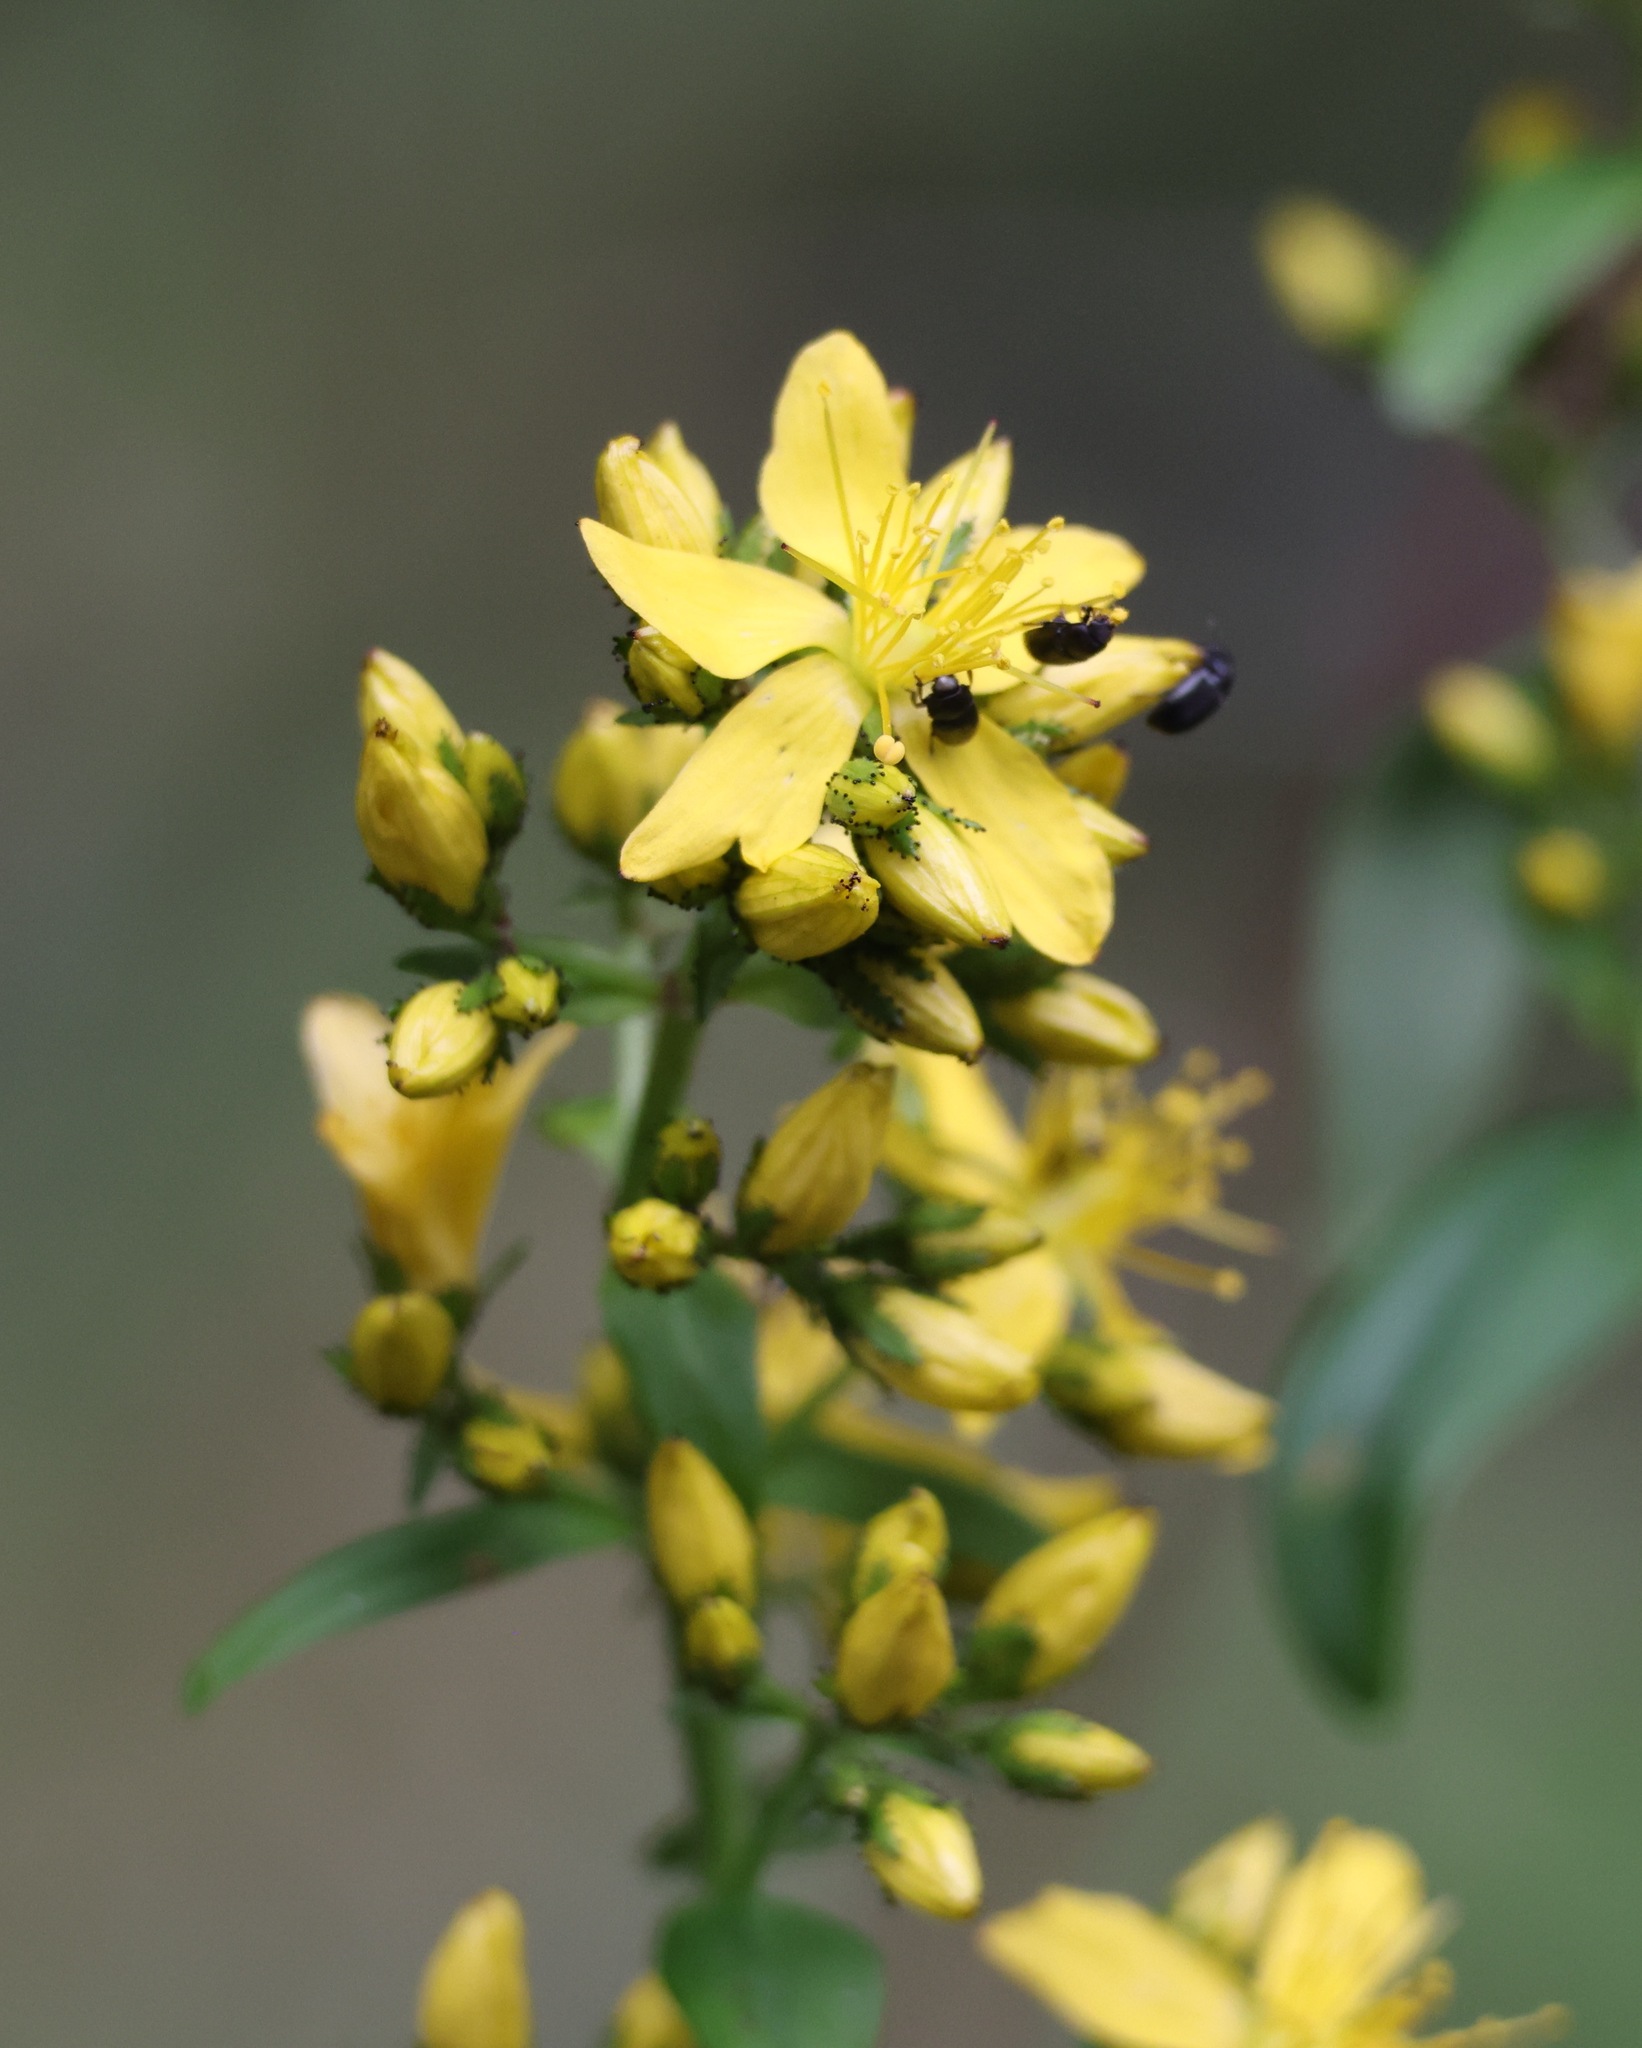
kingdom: Plantae
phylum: Tracheophyta
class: Magnoliopsida
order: Malpighiales
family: Hypericaceae
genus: Hypericum
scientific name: Hypericum hirsutum
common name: Hairy st. john's-wort
